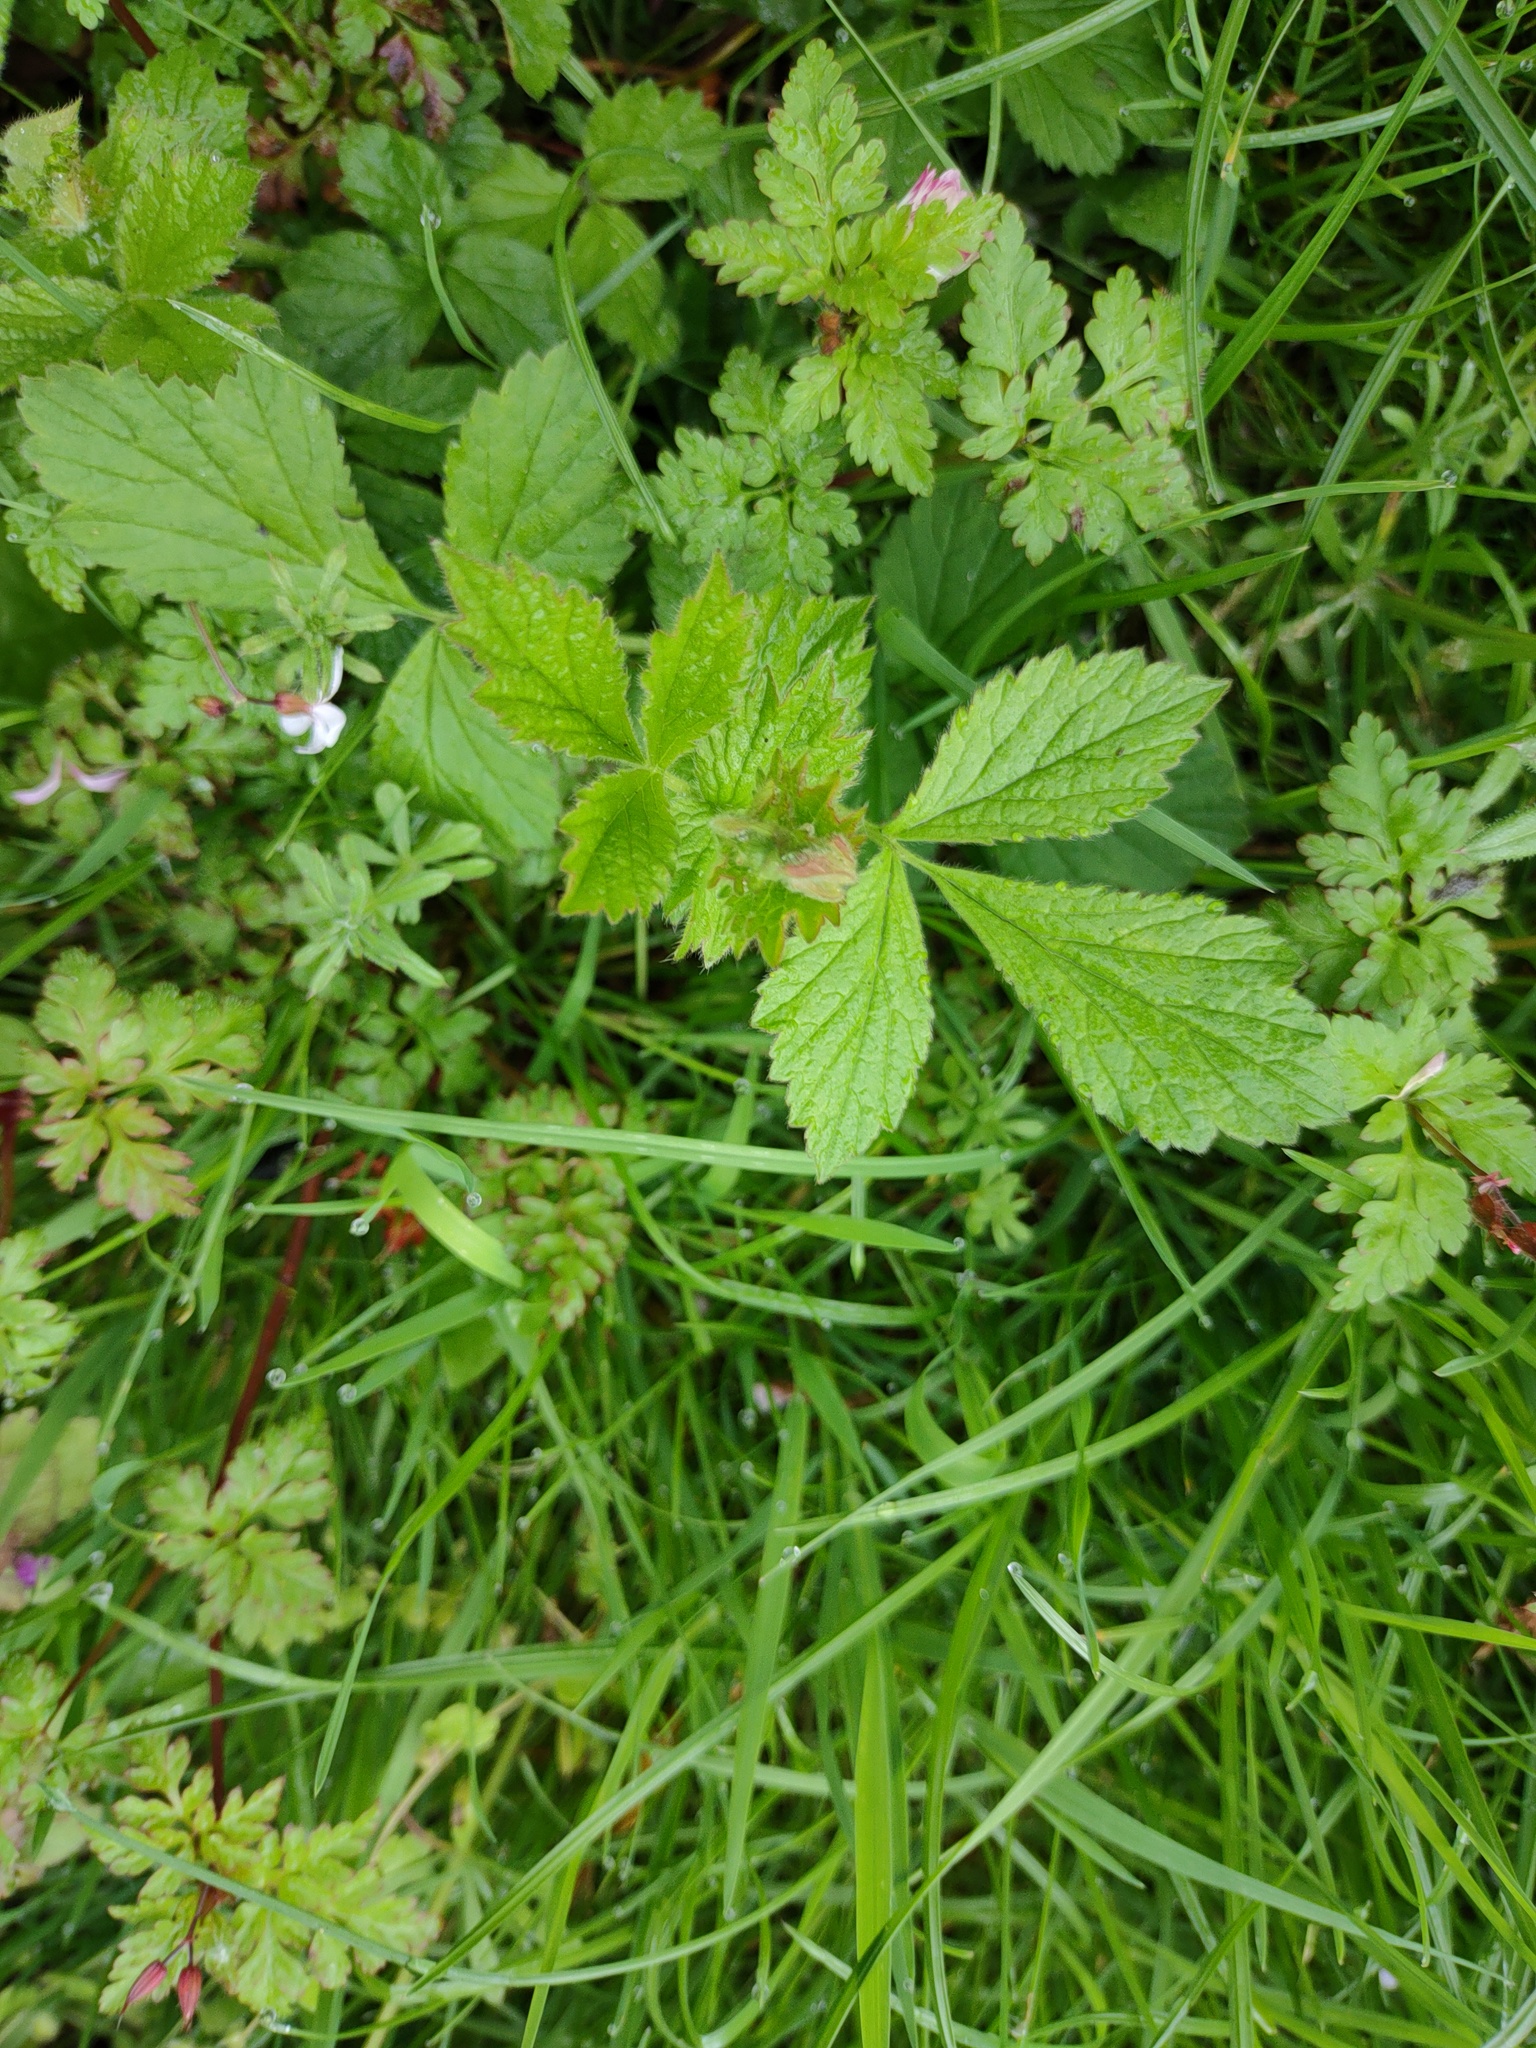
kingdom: Plantae
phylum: Tracheophyta
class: Magnoliopsida
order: Rosales
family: Rosaceae
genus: Geum
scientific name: Geum urbanum
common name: Wood avens
